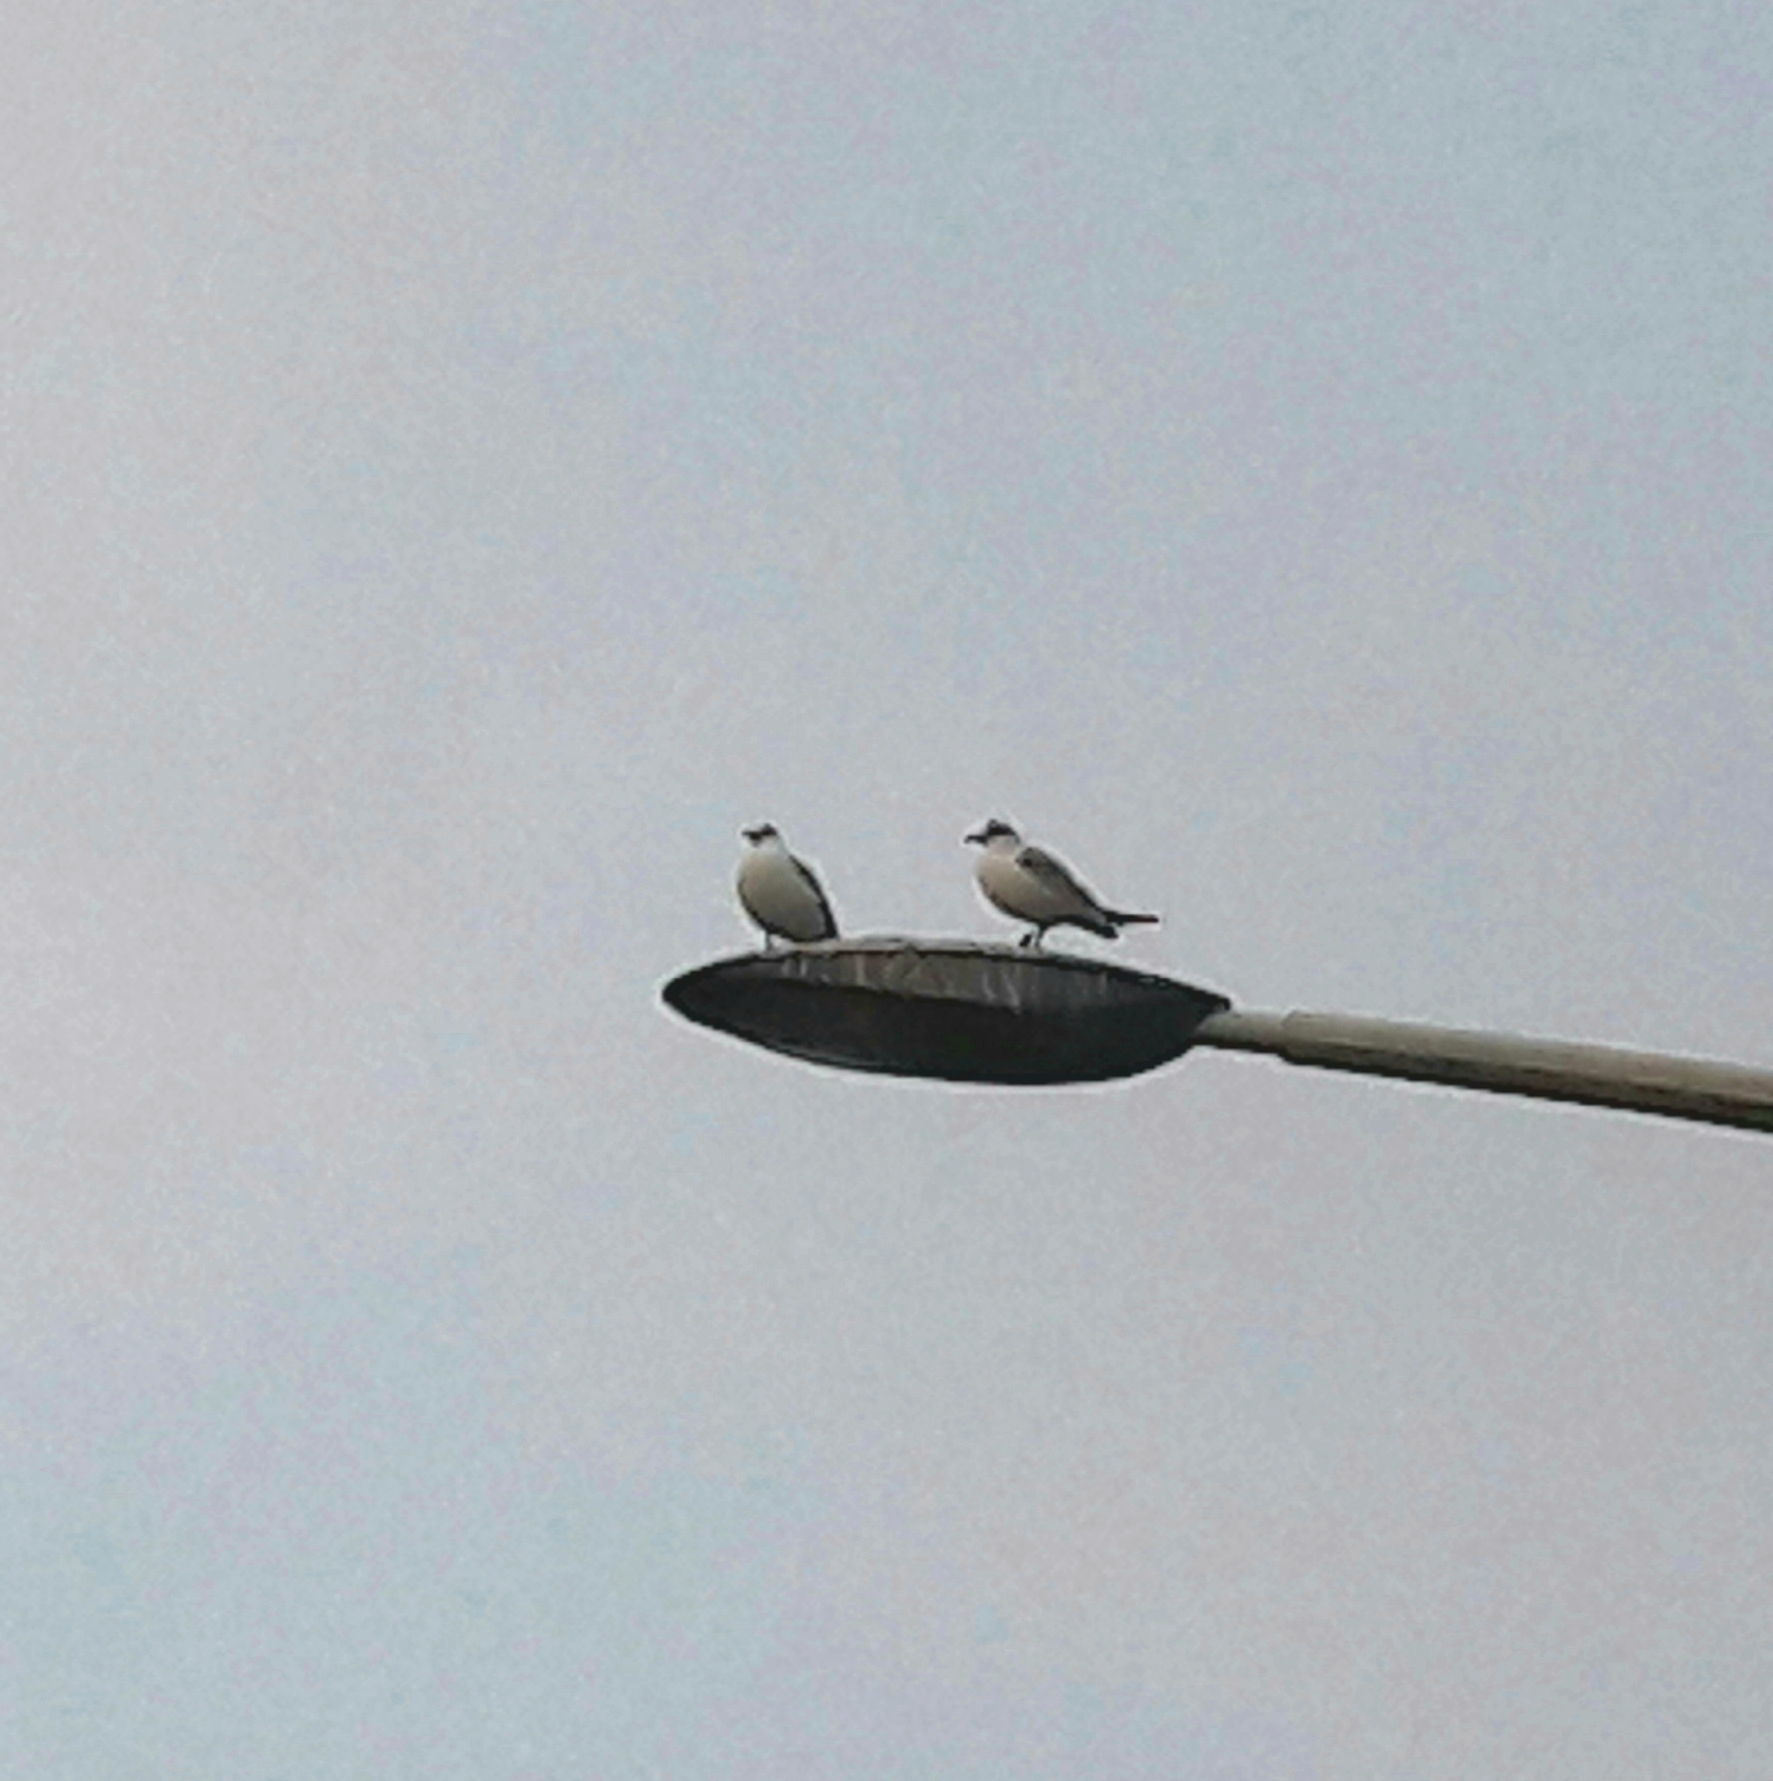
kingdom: Animalia
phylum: Chordata
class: Aves
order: Charadriiformes
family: Laridae
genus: Chroicocephalus
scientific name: Chroicocephalus ridibundus
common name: Black-headed gull
